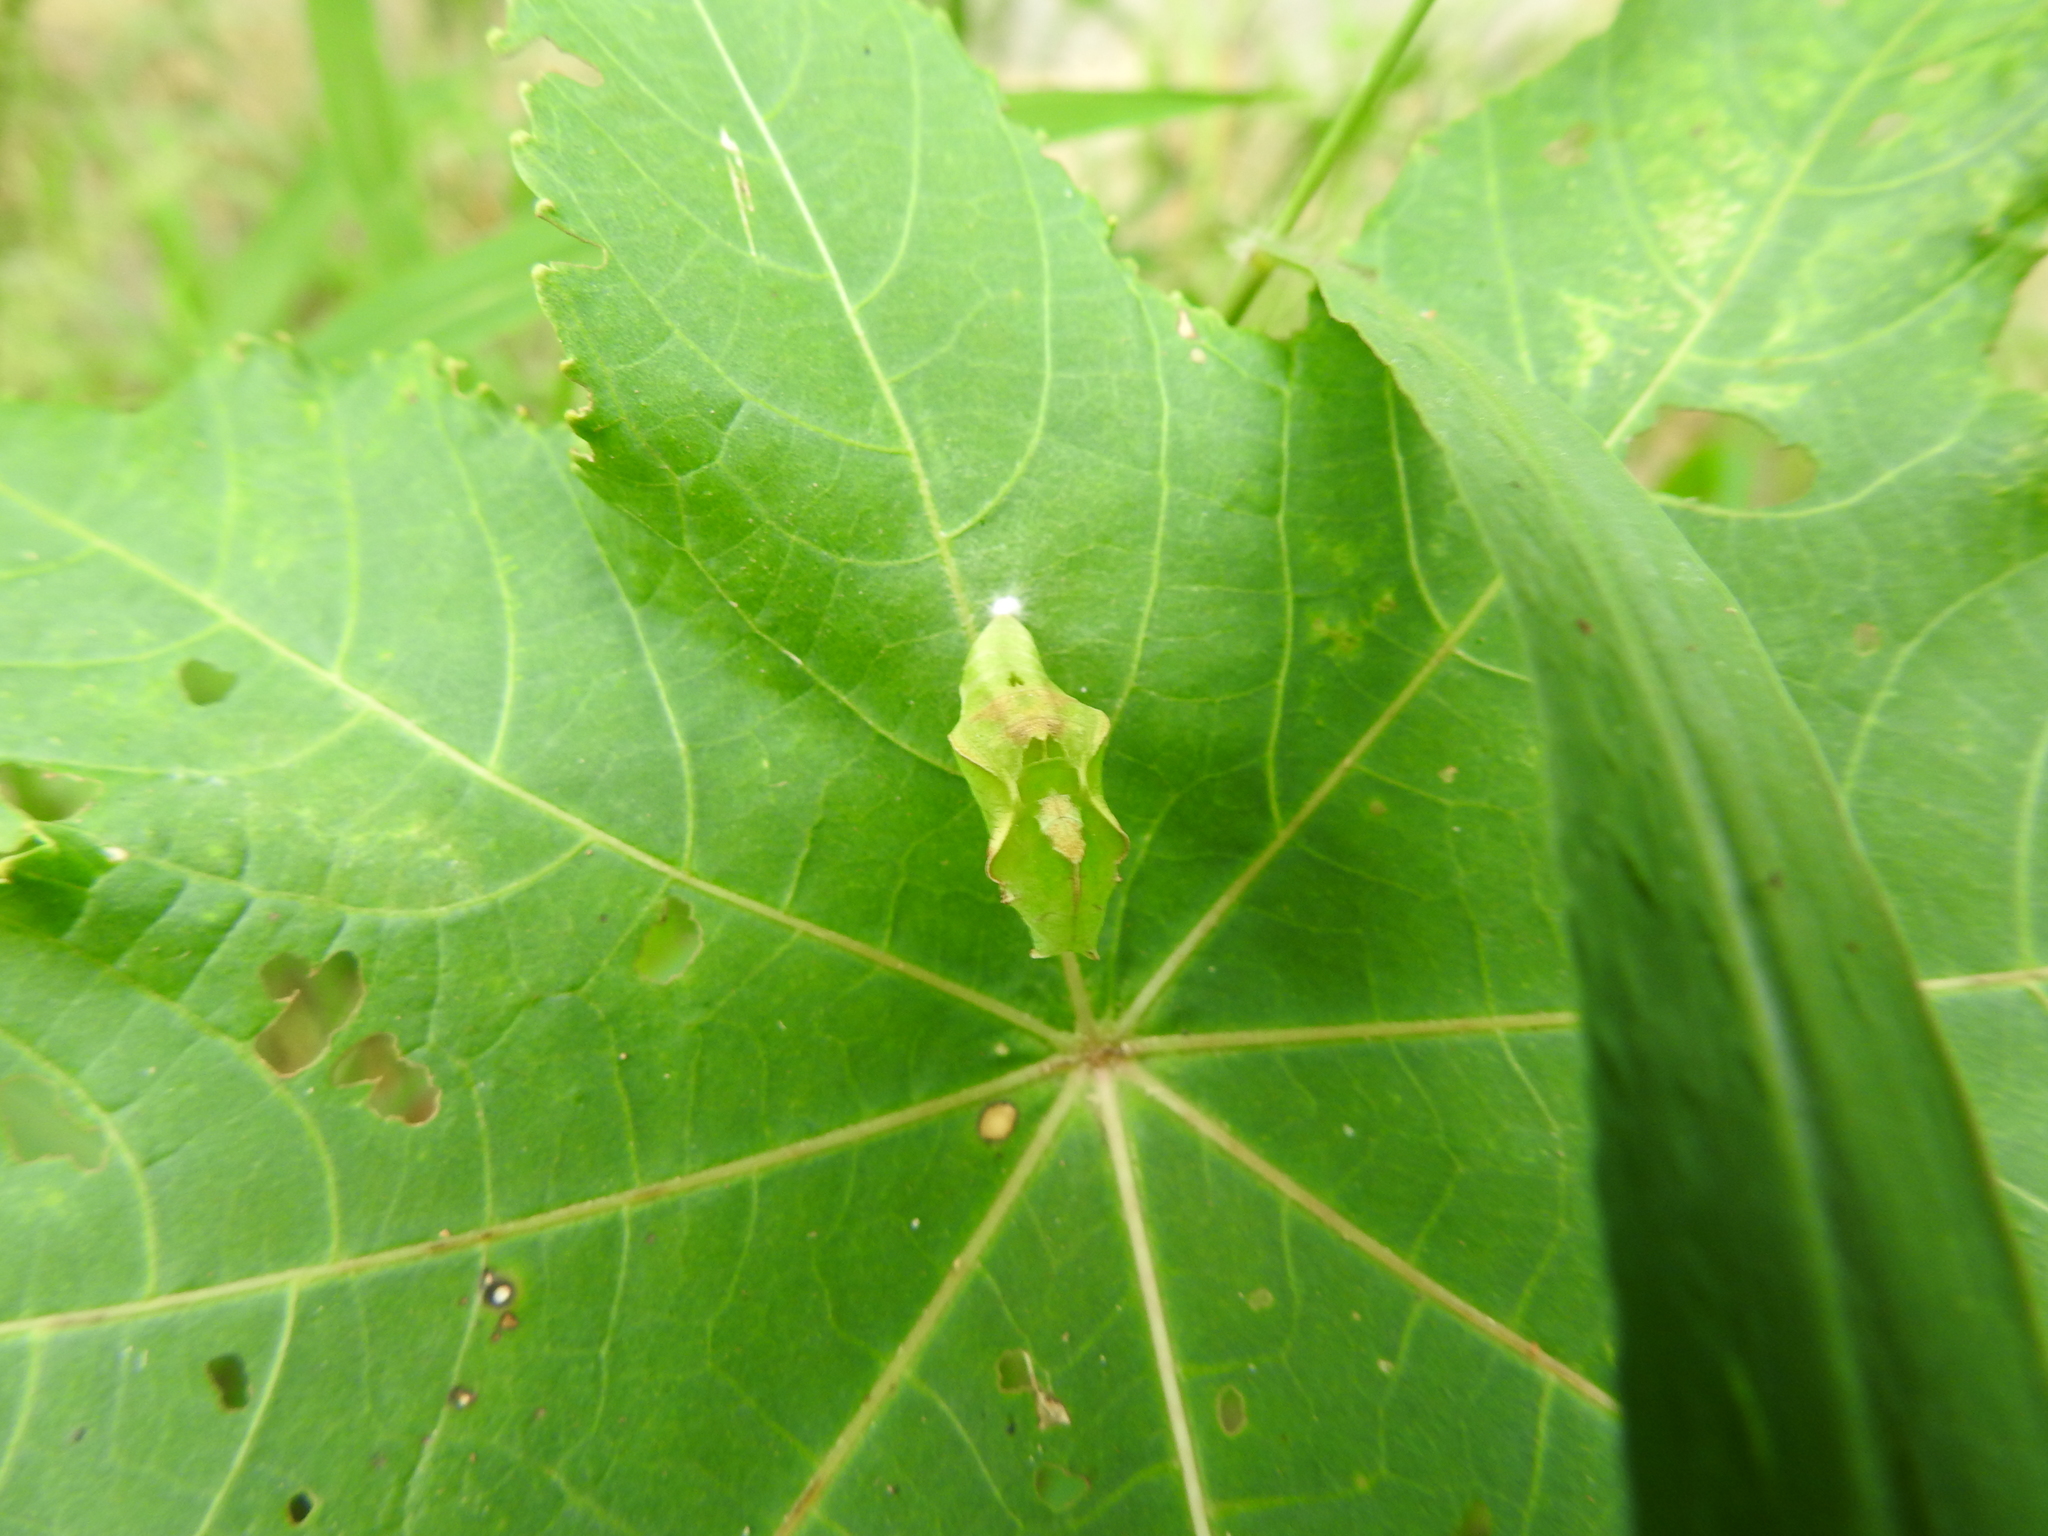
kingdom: Animalia
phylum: Arthropoda
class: Insecta
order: Lepidoptera
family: Nymphalidae
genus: Ariadne
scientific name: Ariadne merione
